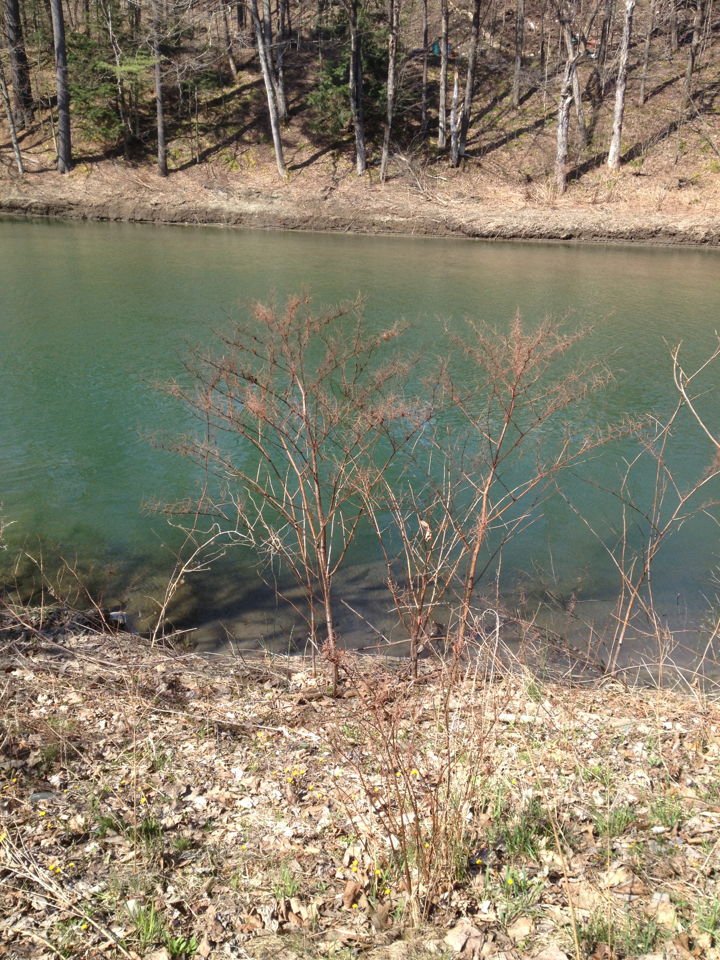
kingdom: Plantae
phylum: Tracheophyta
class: Magnoliopsida
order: Caryophyllales
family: Polygonaceae
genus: Reynoutria
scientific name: Reynoutria japonica
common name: Japanese knotweed
